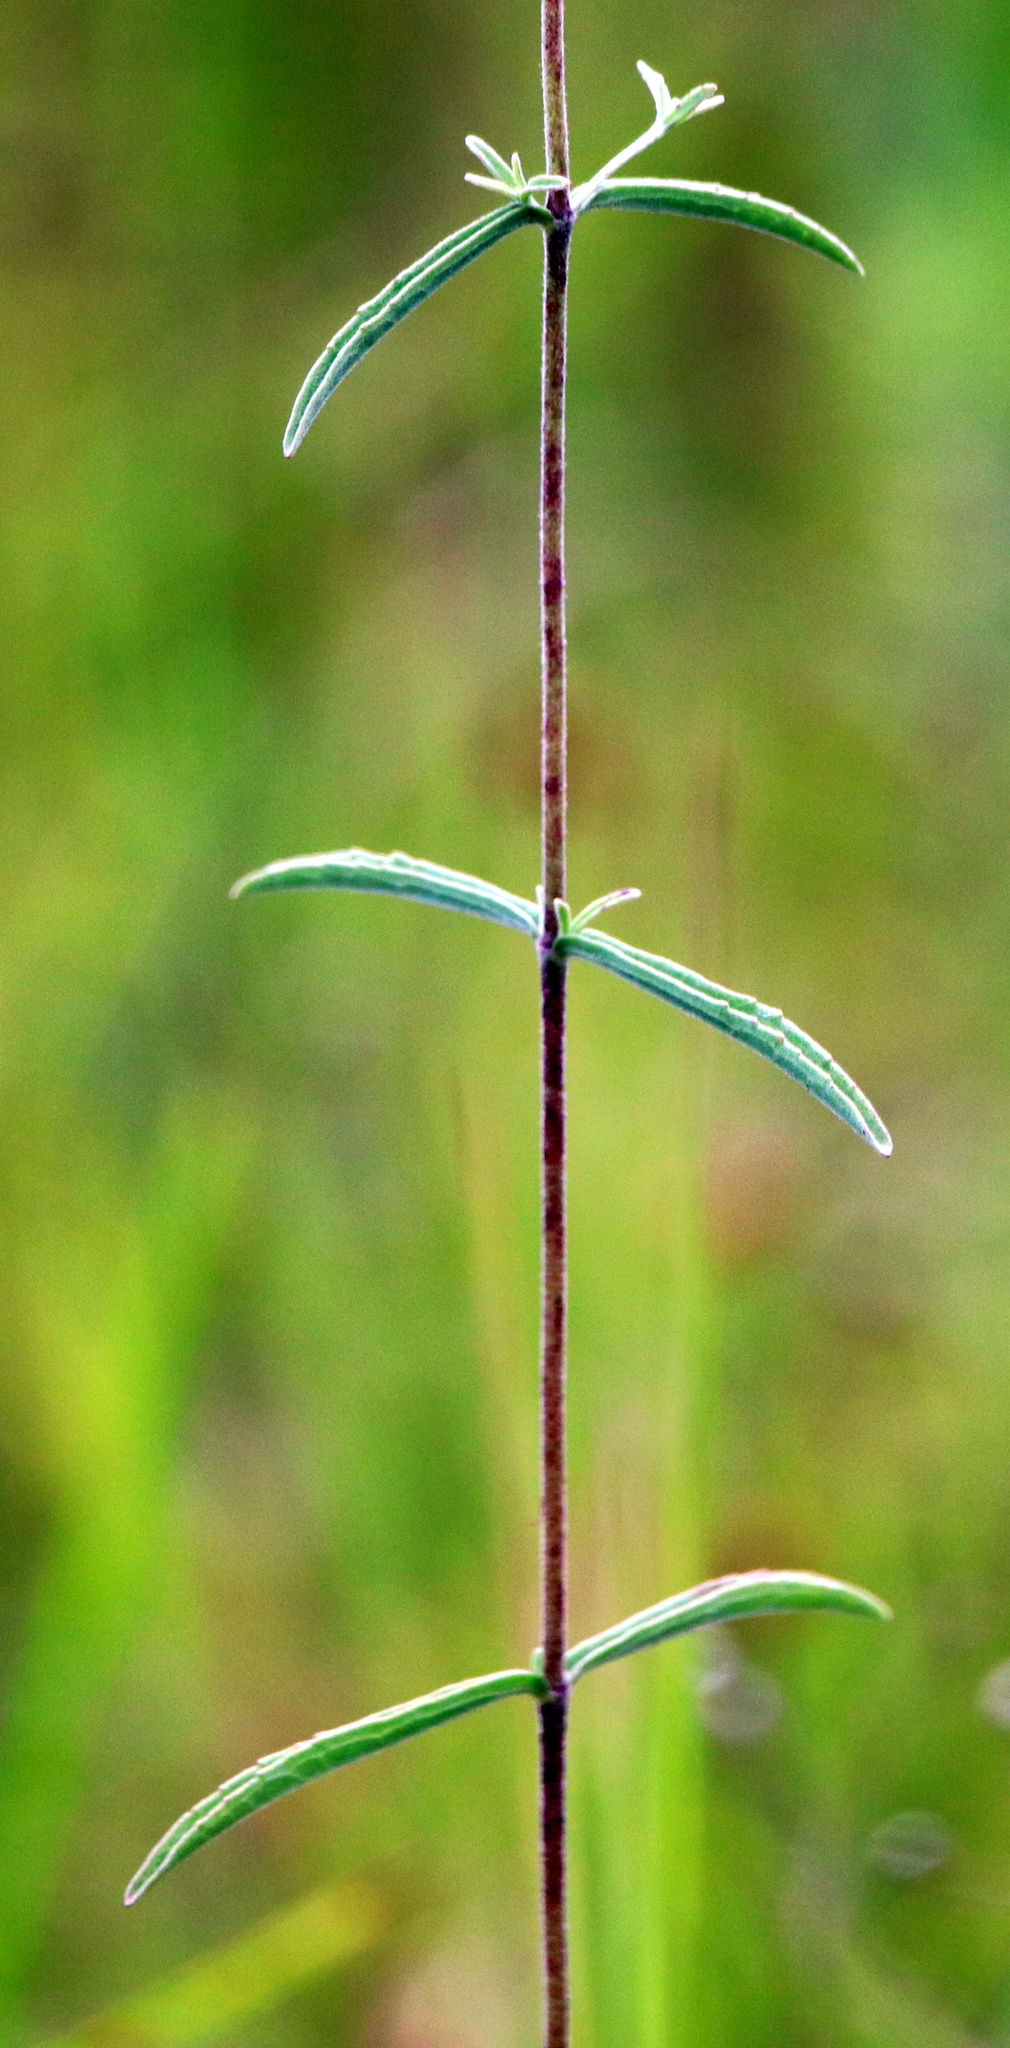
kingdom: Plantae
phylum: Tracheophyta
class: Magnoliopsida
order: Asterales
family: Asteraceae
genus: Eupatorium
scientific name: Eupatorium leucolepis
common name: Justiceweed
